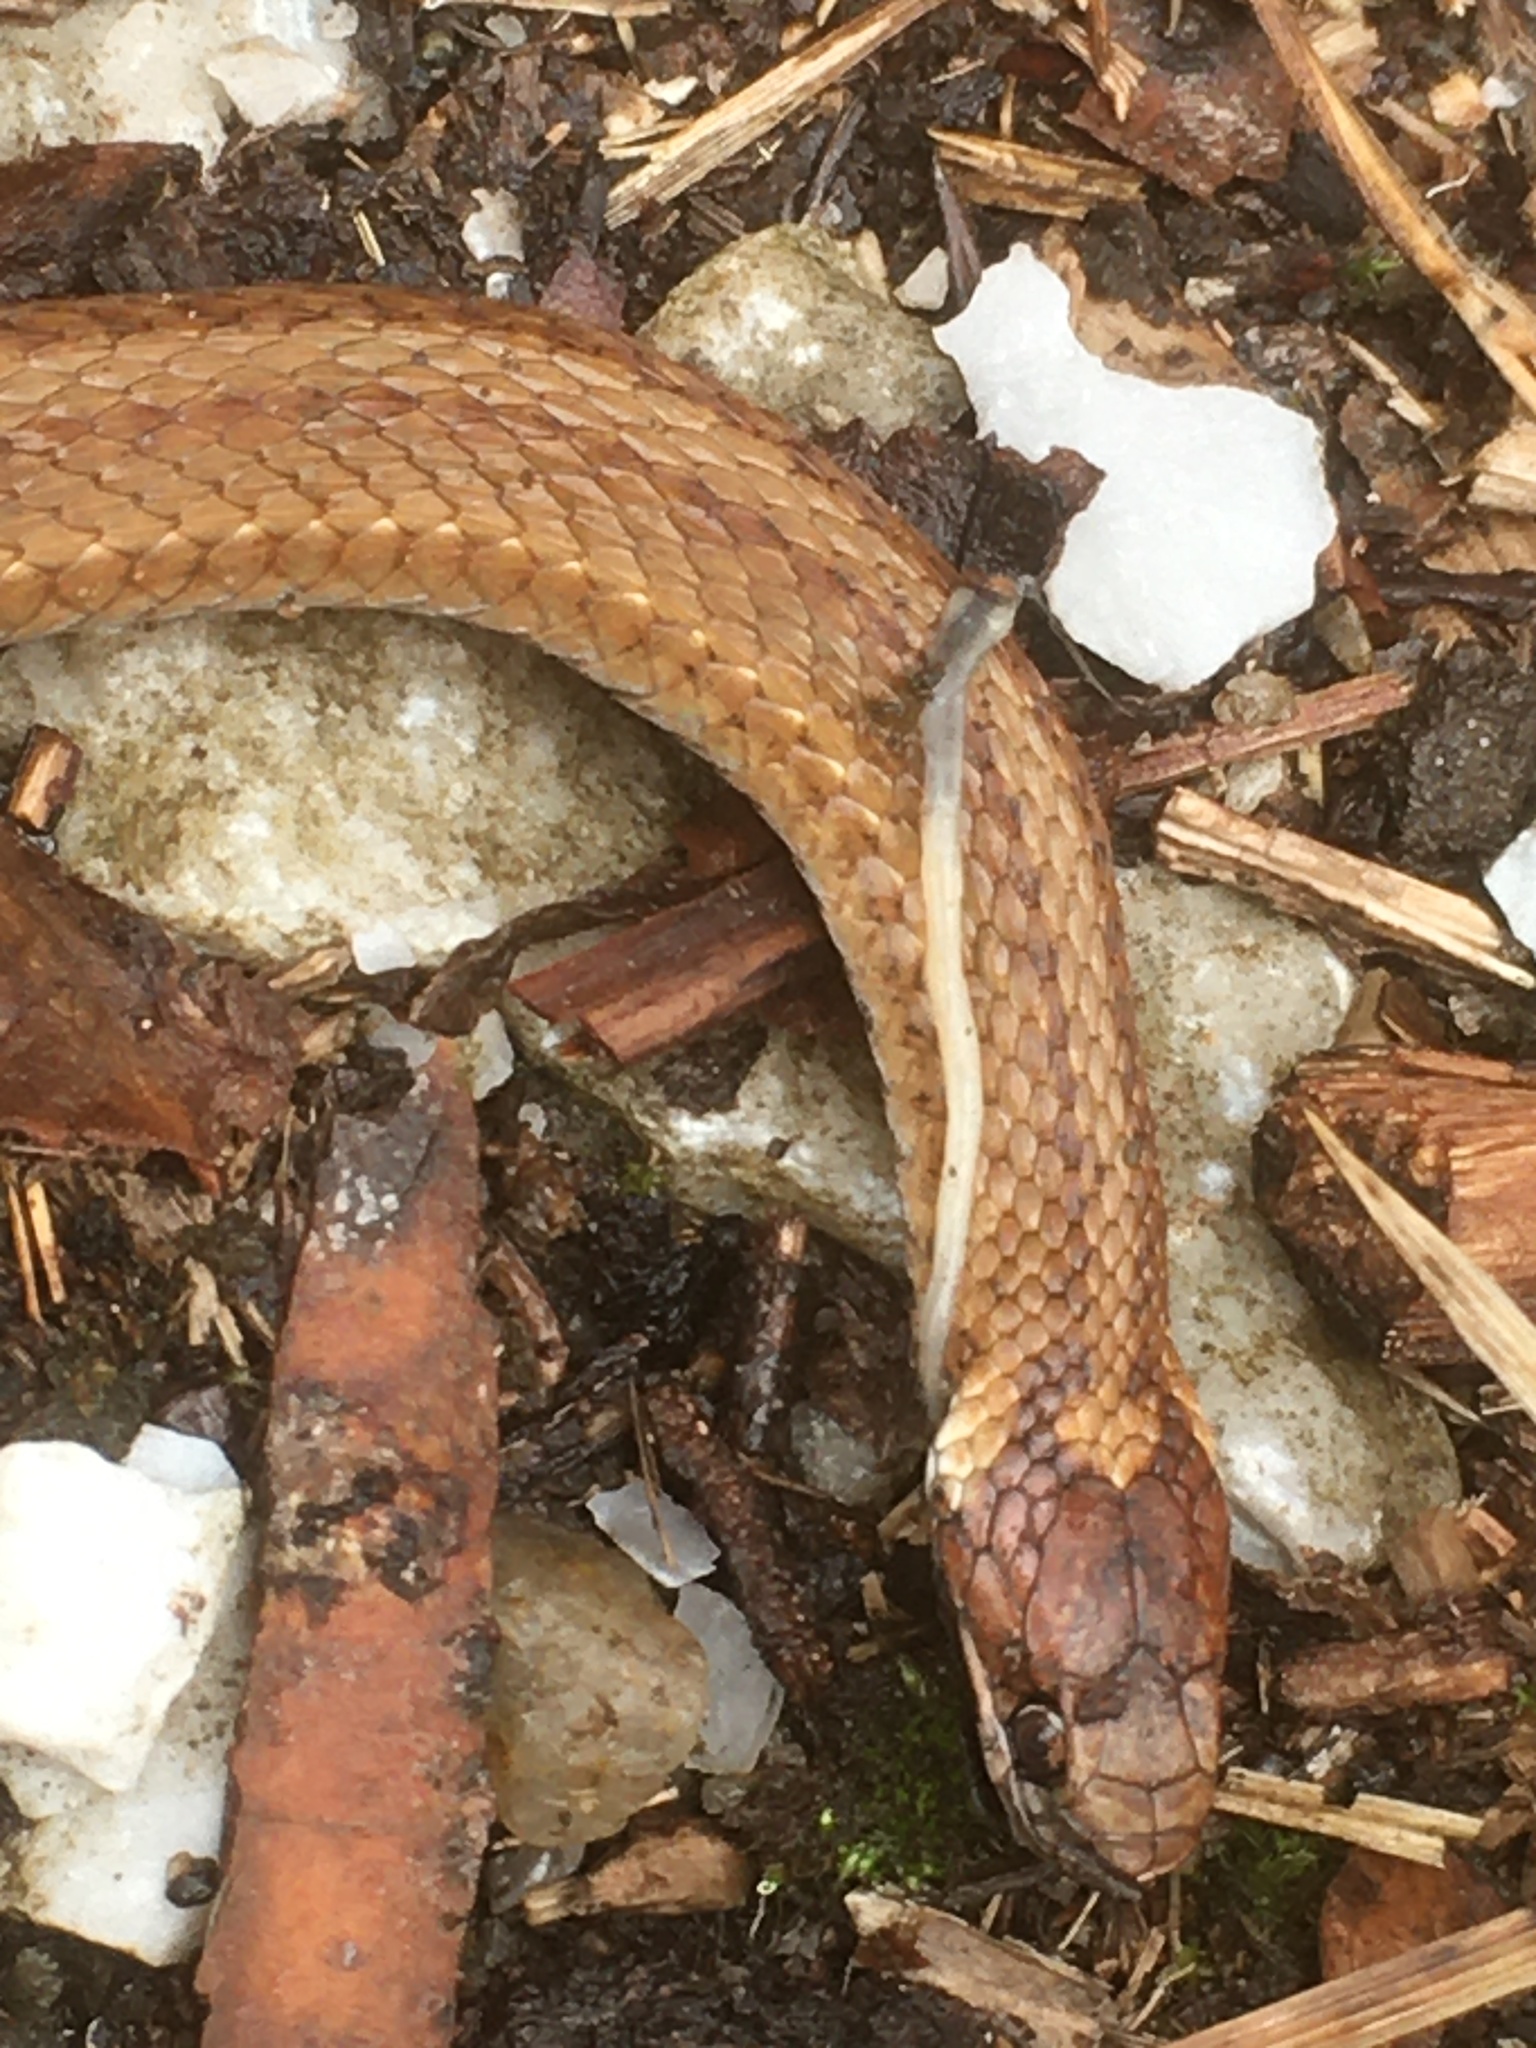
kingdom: Animalia
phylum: Chordata
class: Squamata
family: Colubridae
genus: Storeria
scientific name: Storeria occipitomaculata
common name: Redbelly snake
